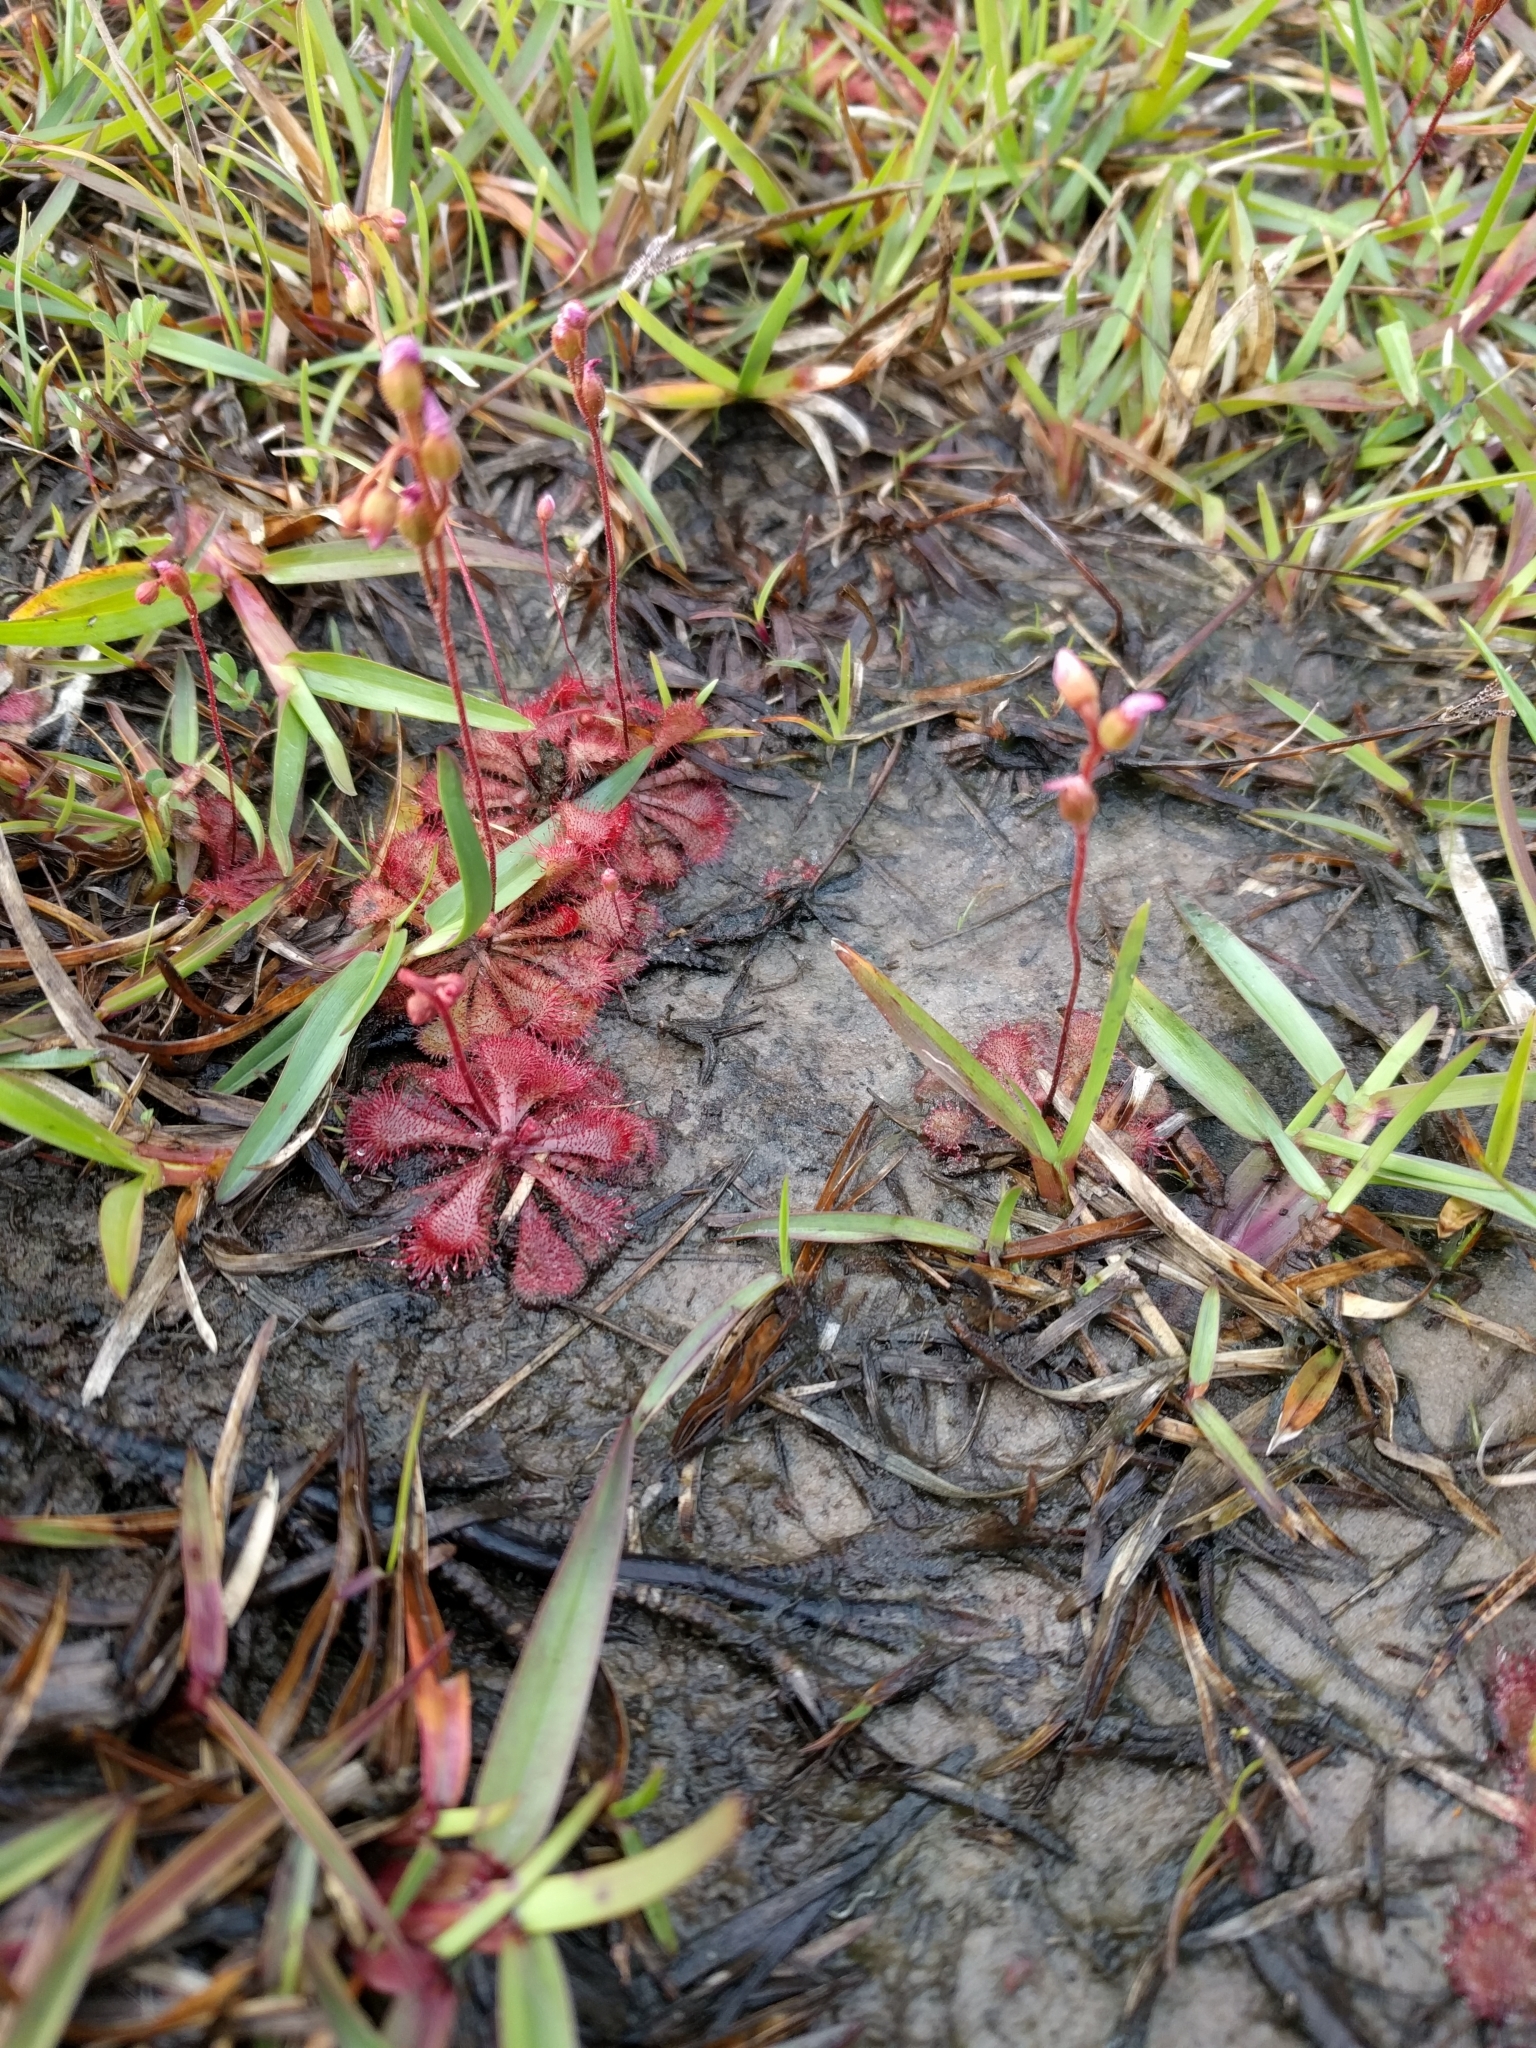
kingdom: Plantae
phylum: Tracheophyta
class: Magnoliopsida
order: Caryophyllales
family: Droseraceae
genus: Drosera
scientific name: Drosera brevifolia
